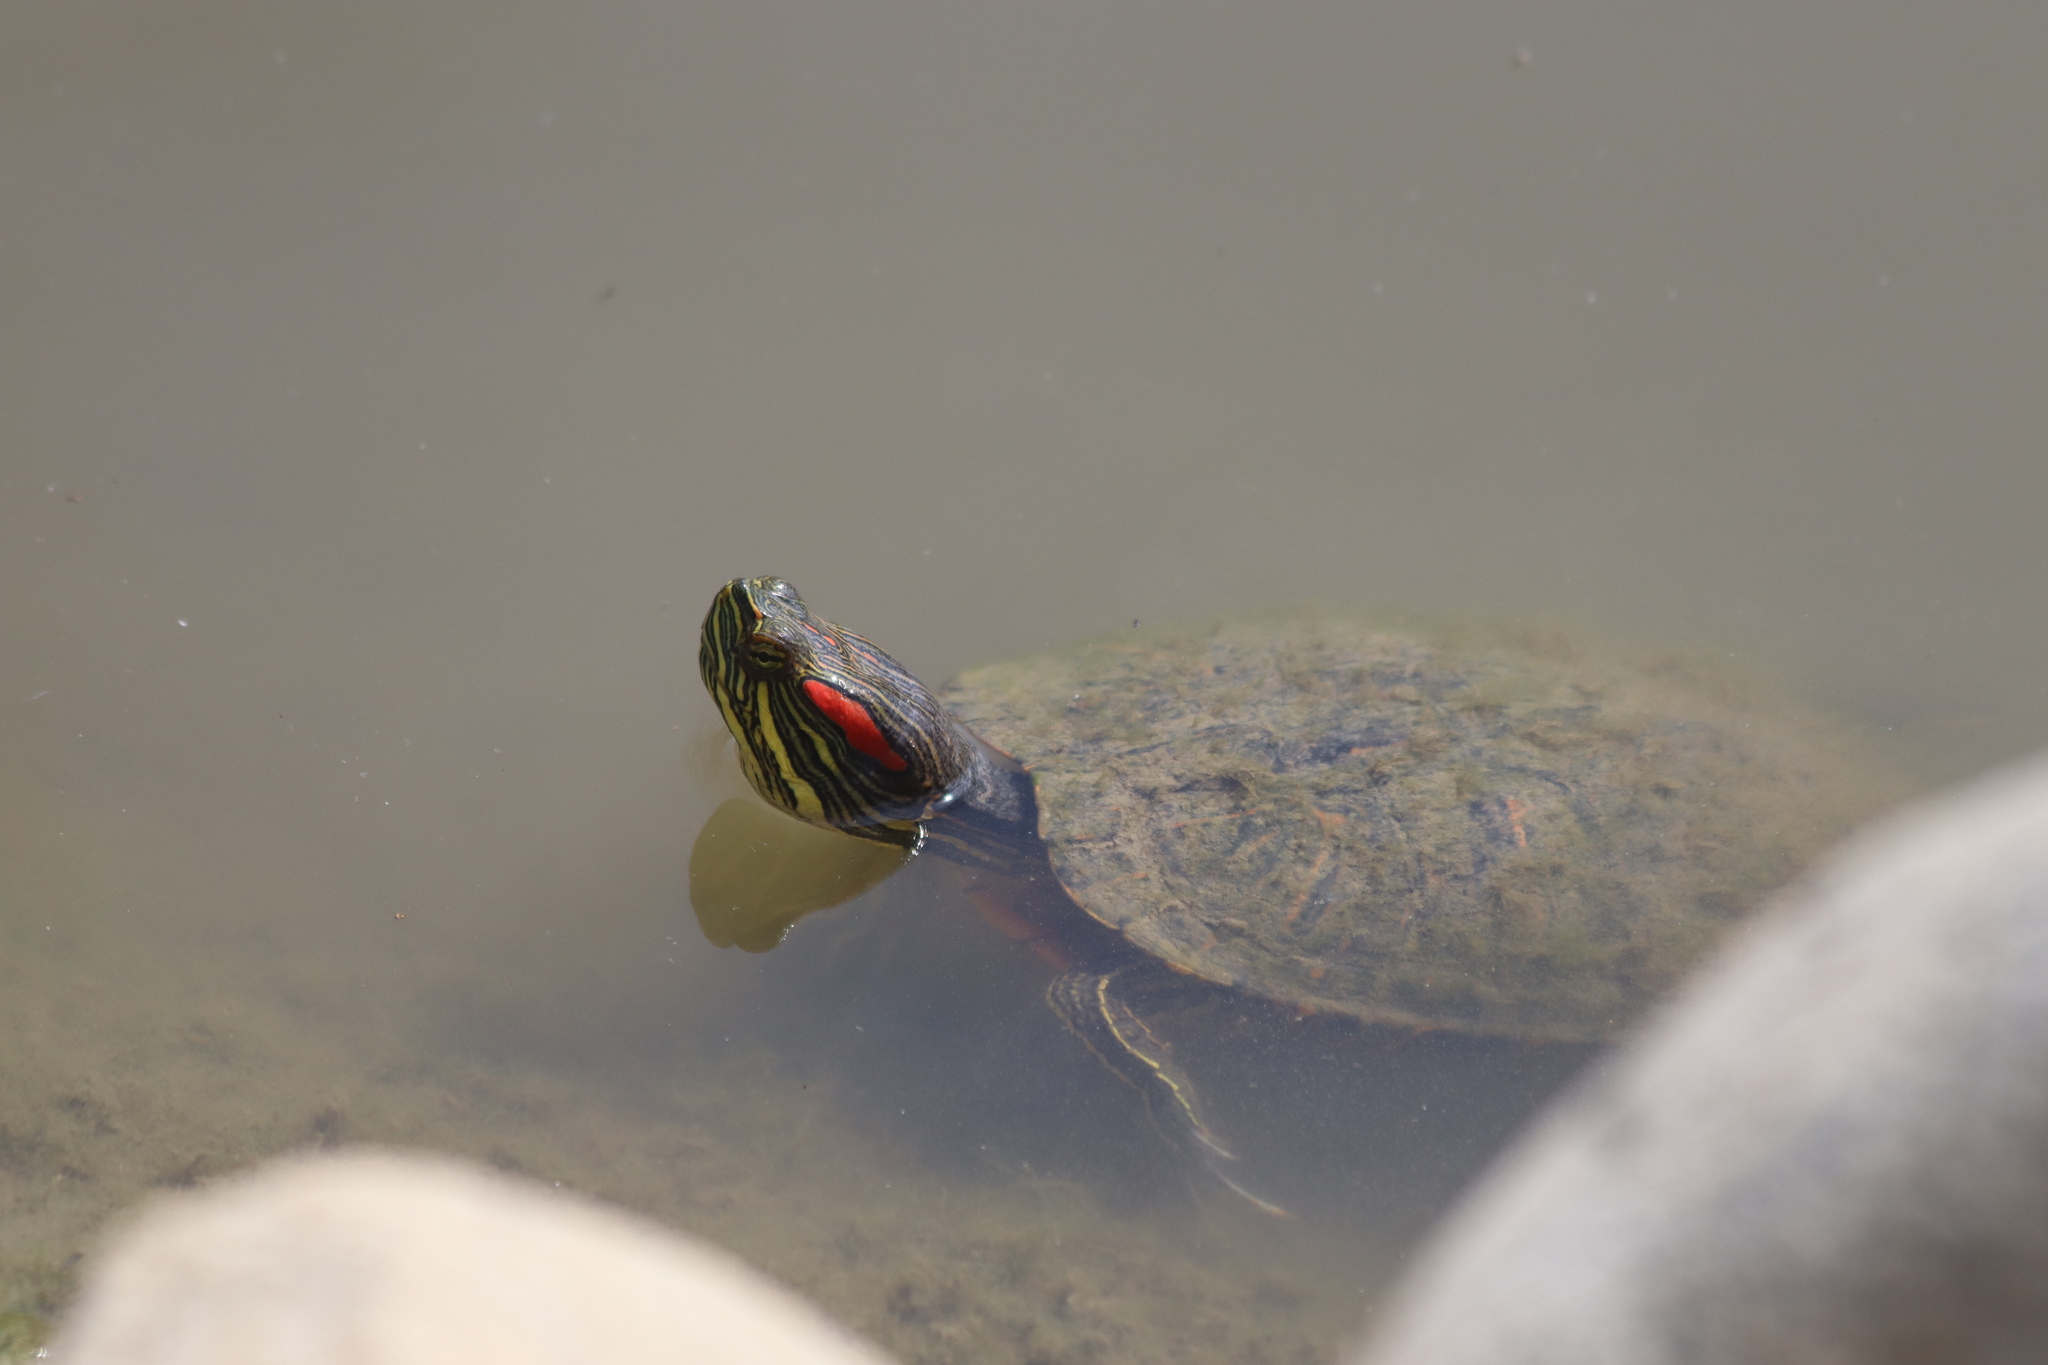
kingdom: Animalia
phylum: Chordata
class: Testudines
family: Emydidae
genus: Trachemys
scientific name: Trachemys scripta
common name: Slider
